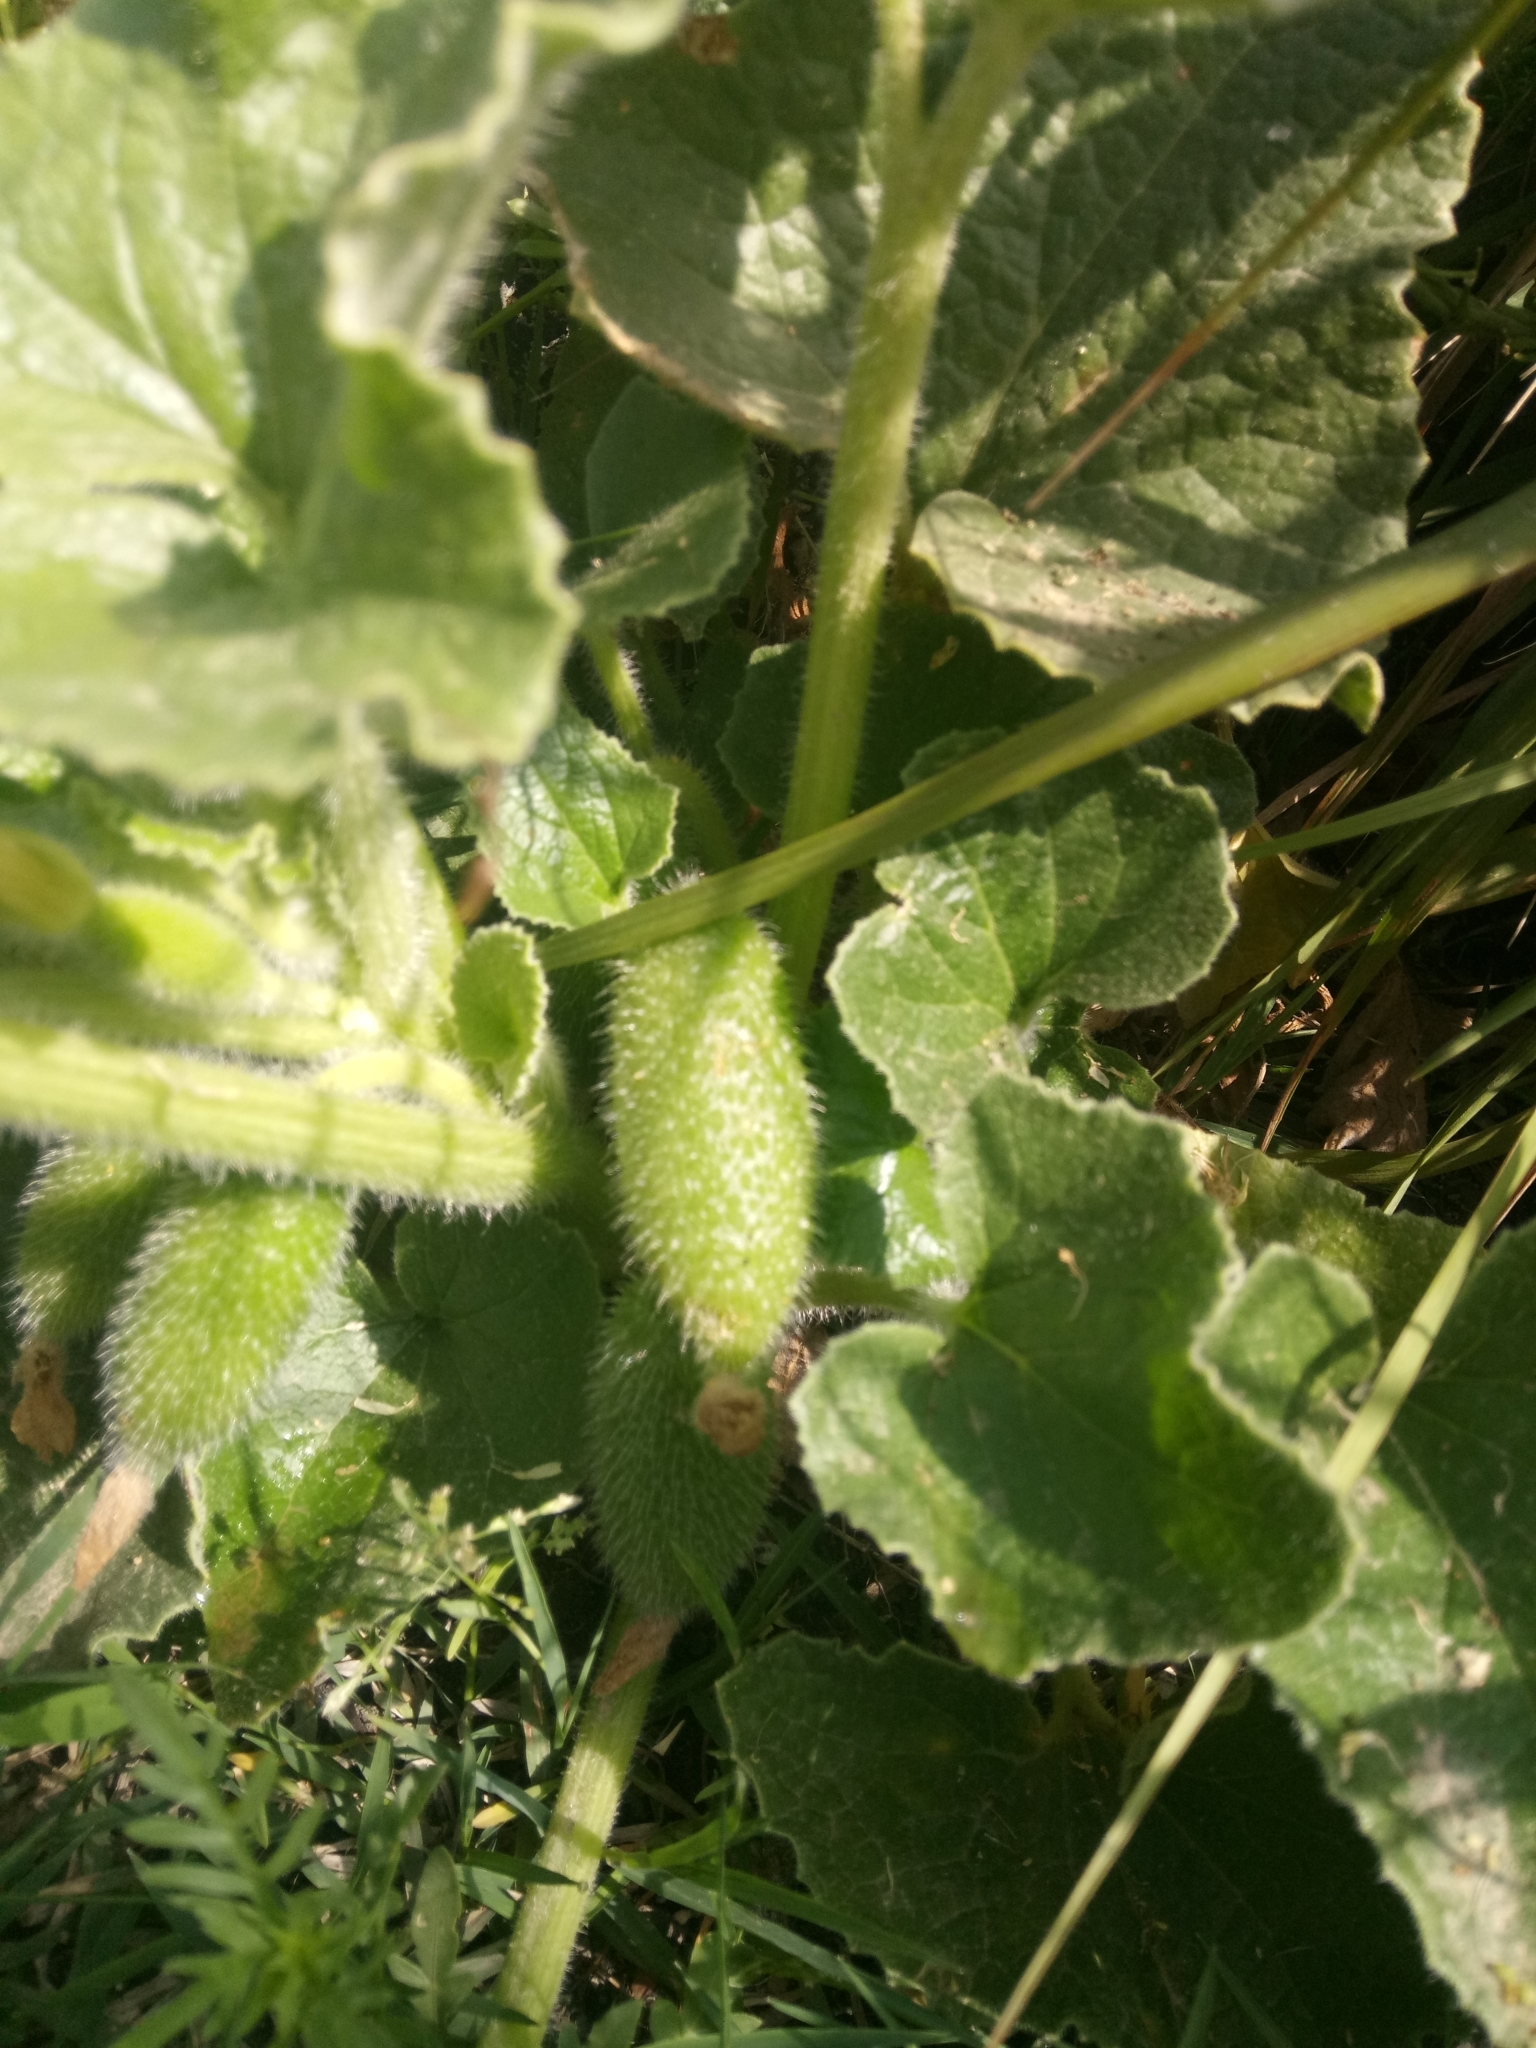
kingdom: Plantae
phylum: Tracheophyta
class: Magnoliopsida
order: Cucurbitales
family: Cucurbitaceae
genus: Ecballium
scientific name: Ecballium elaterium
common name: Squirting cucumber
